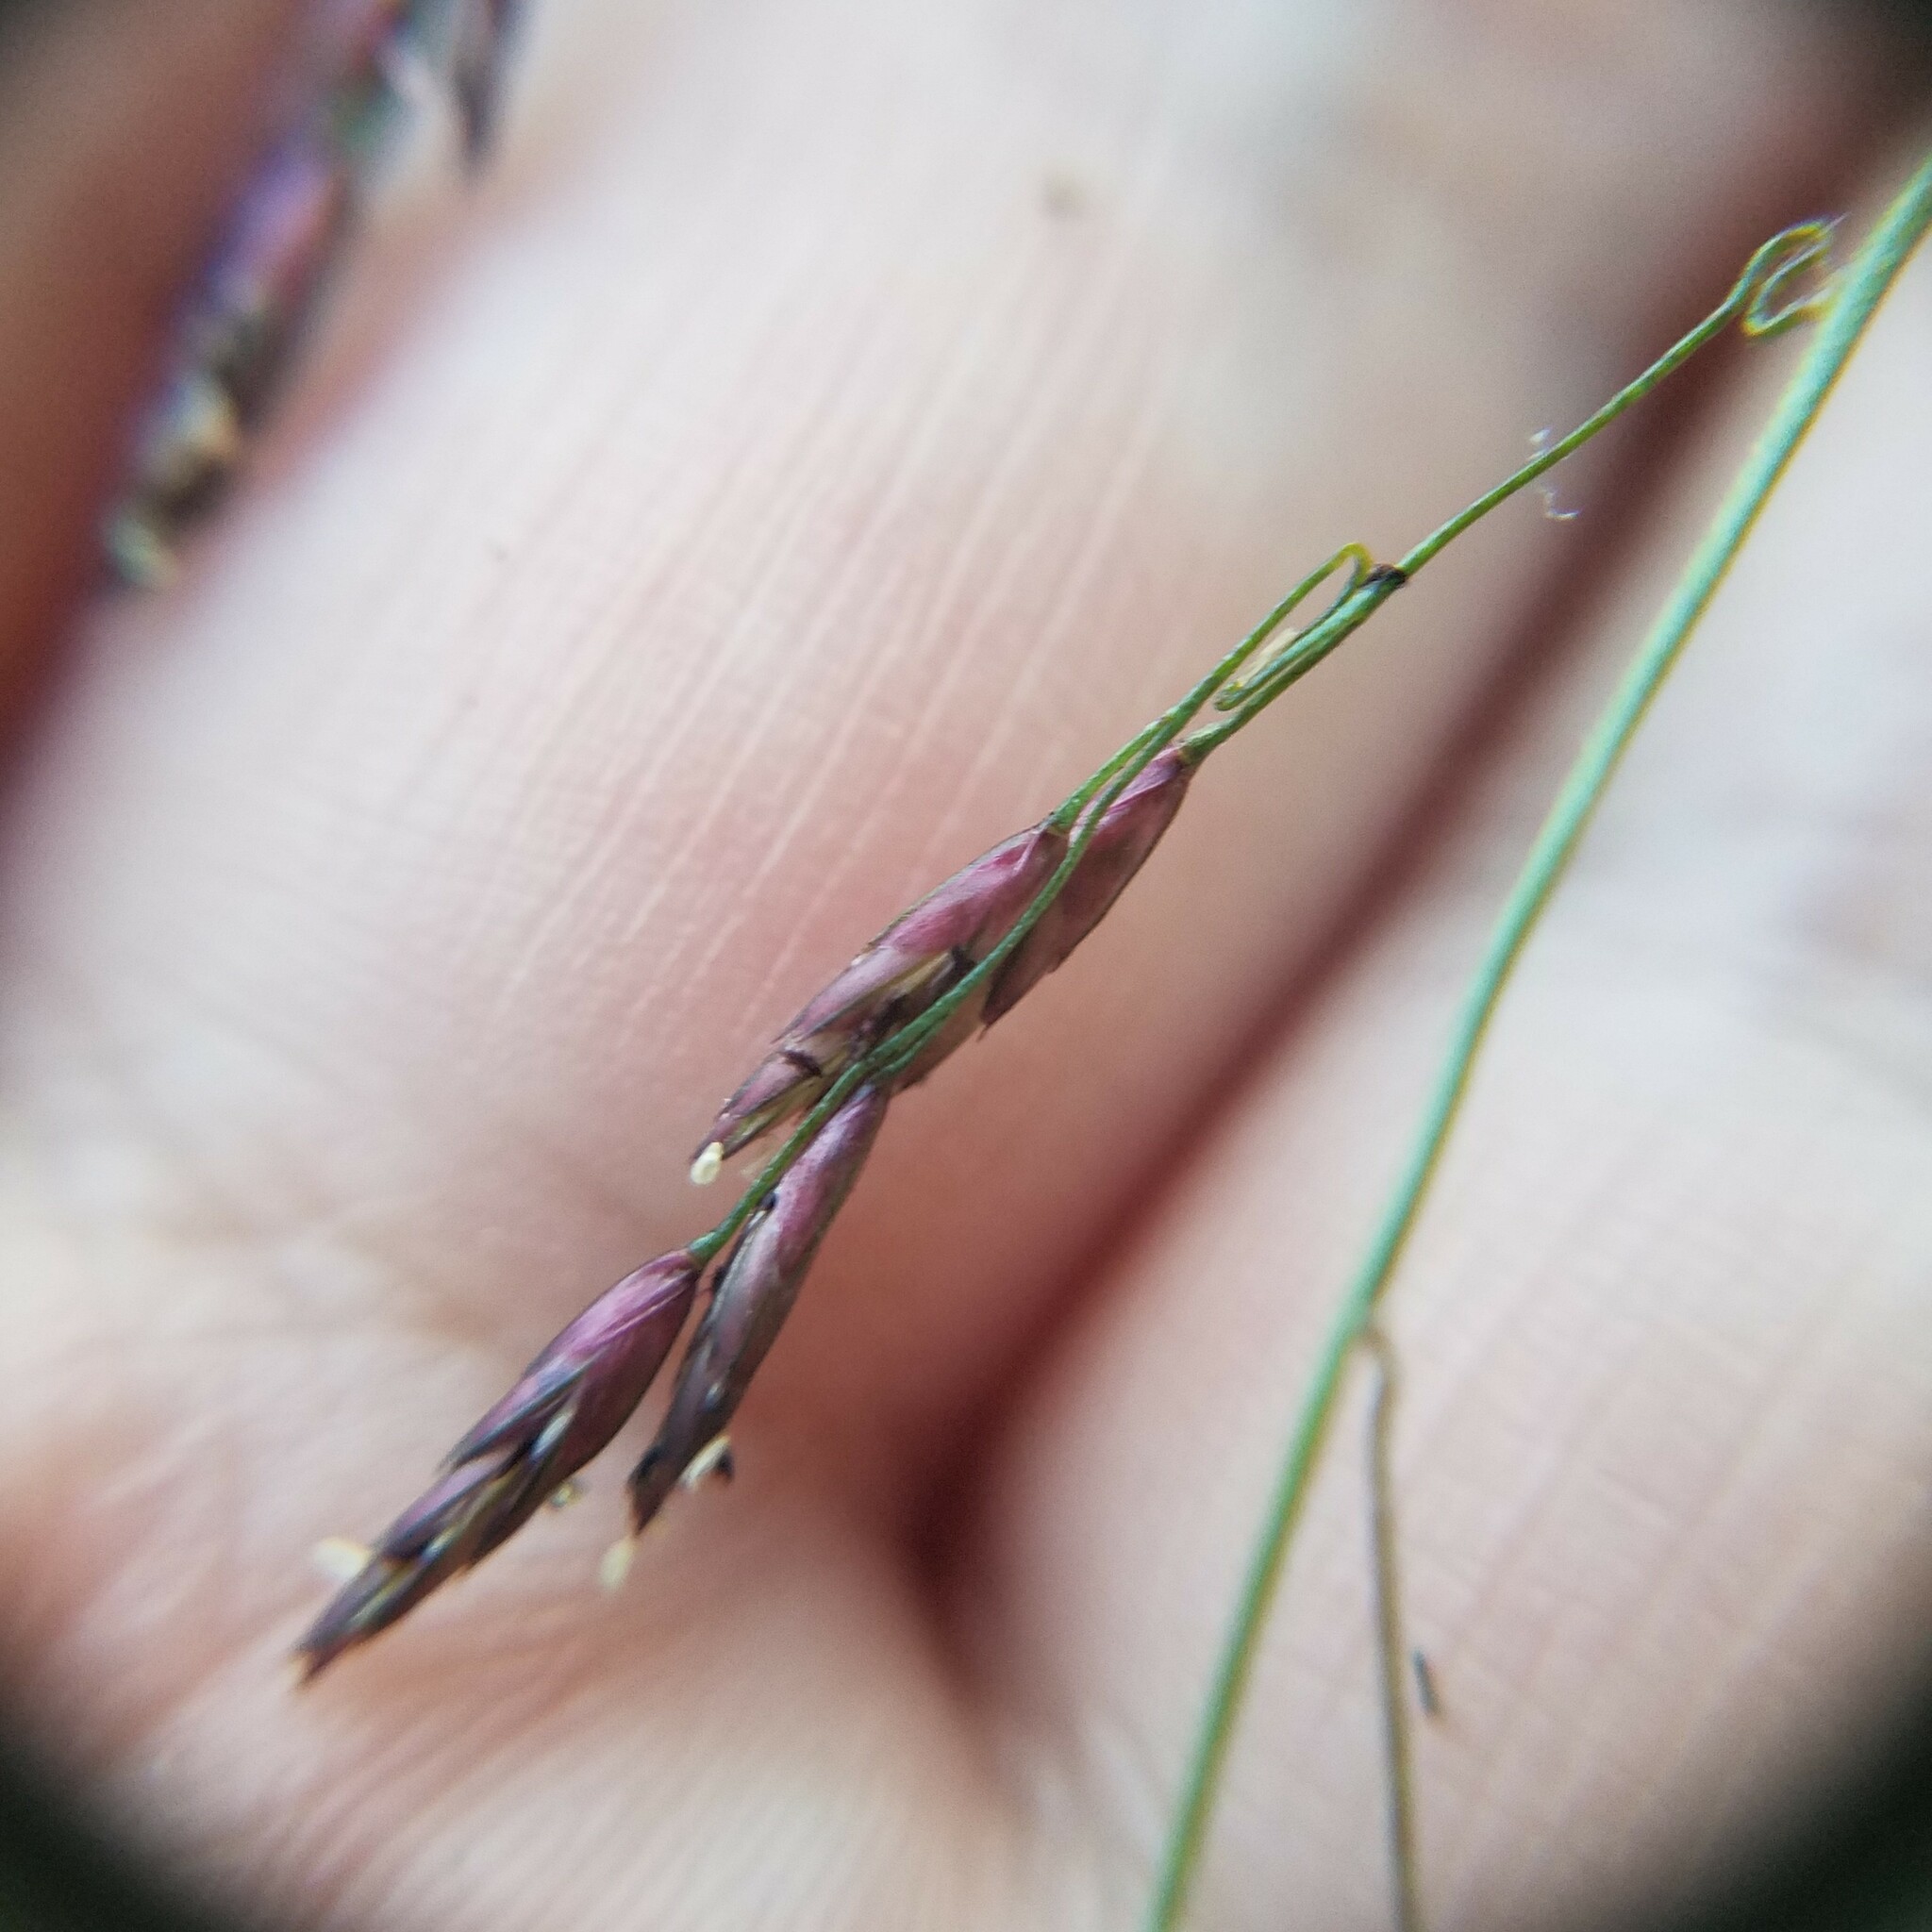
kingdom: Plantae
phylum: Tracheophyta
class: Liliopsida
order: Poales
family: Poaceae
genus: Tridens
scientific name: Tridens flavus
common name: Purpletop
